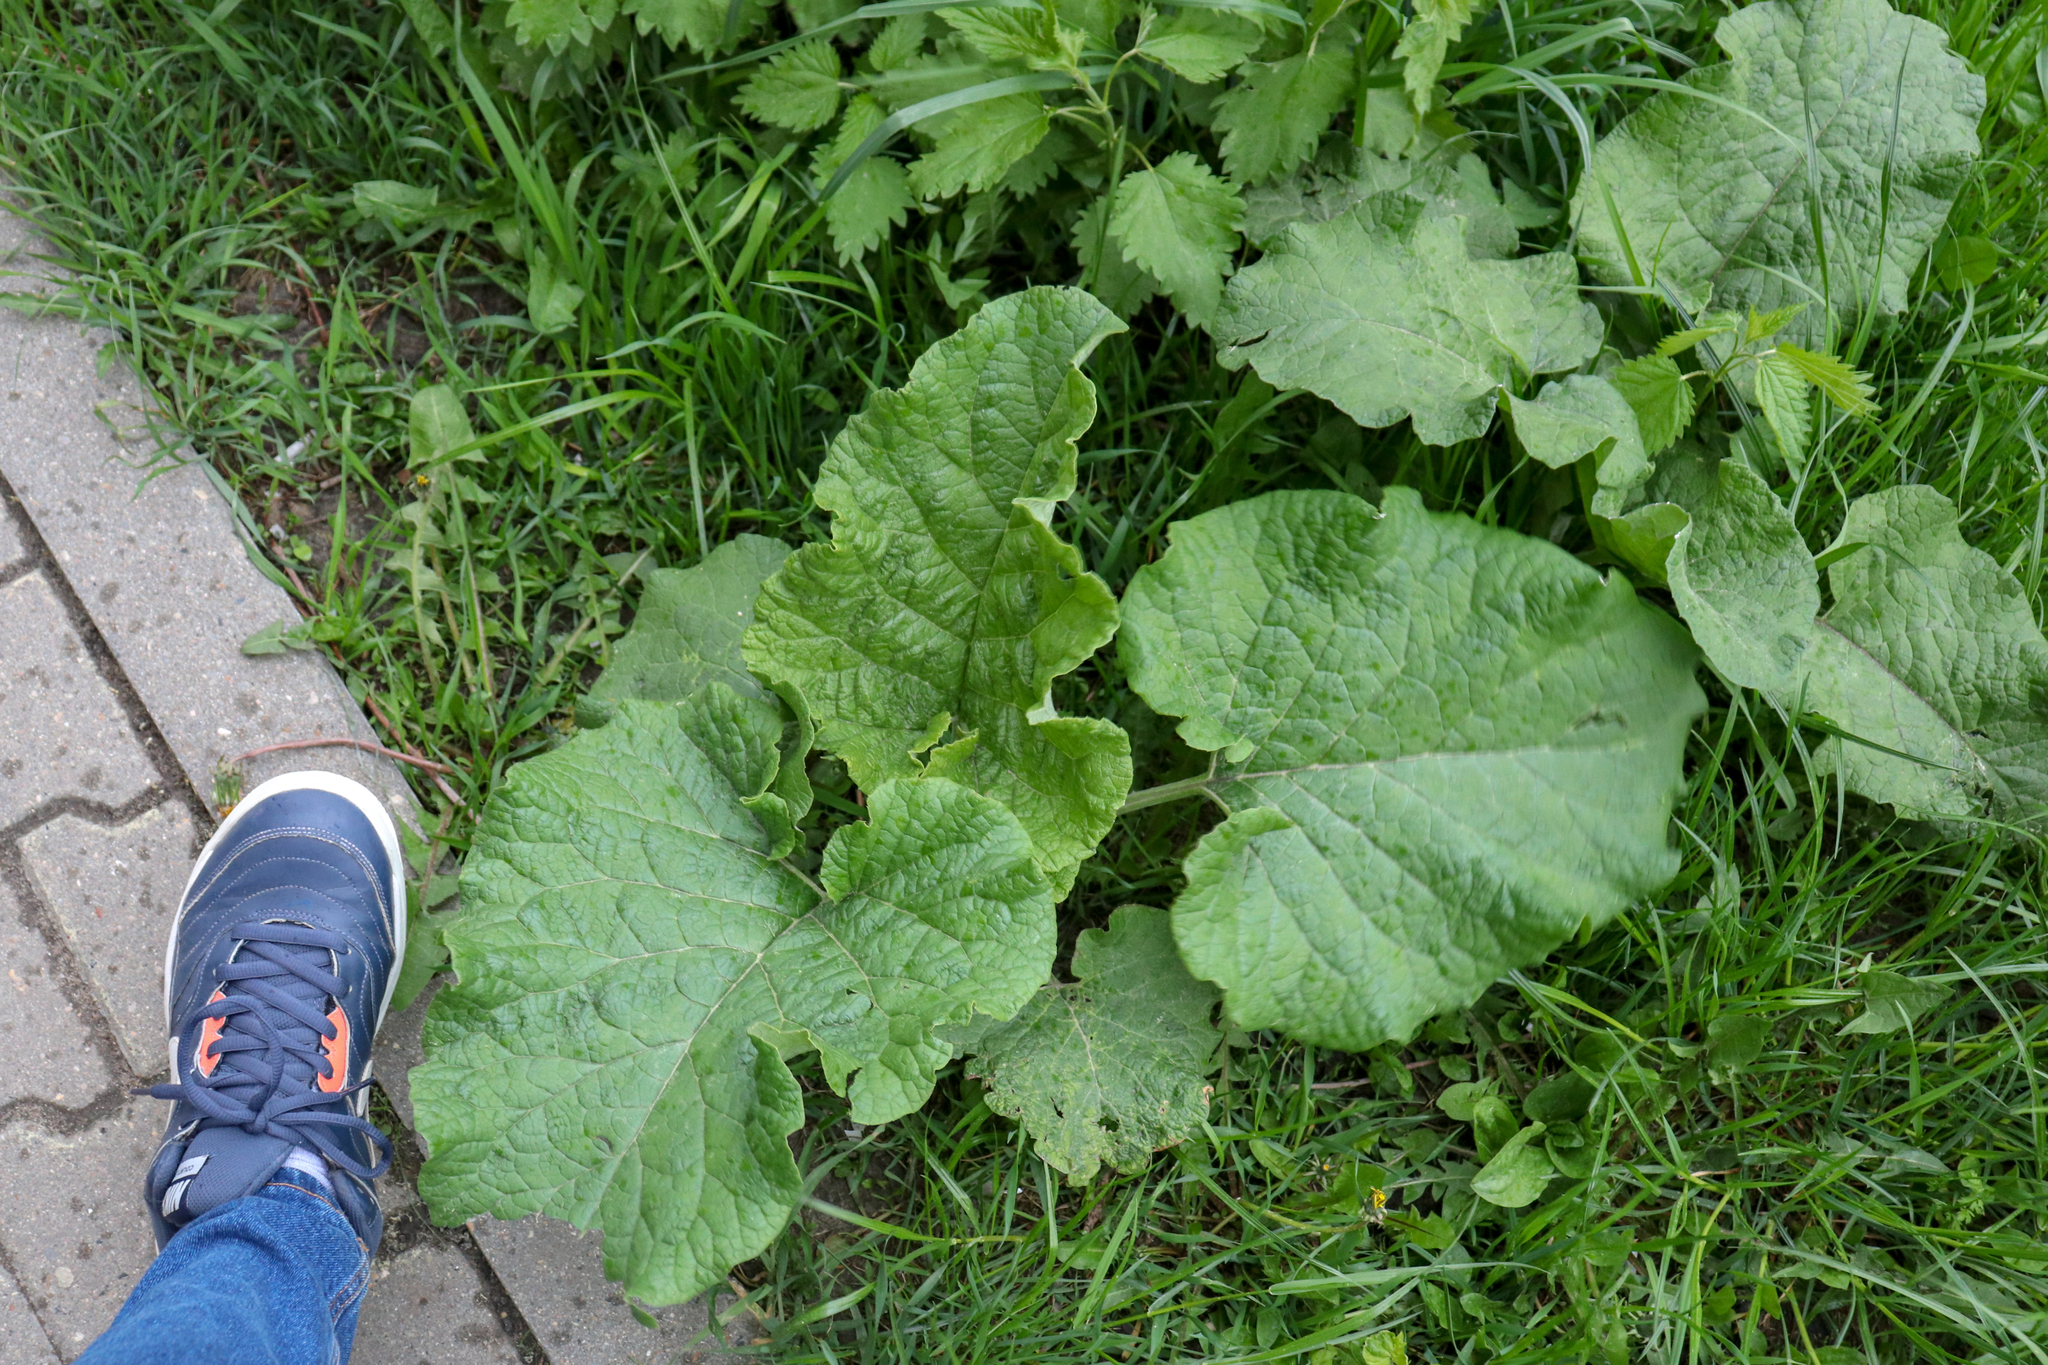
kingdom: Plantae
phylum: Tracheophyta
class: Magnoliopsida
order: Asterales
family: Asteraceae
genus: Arctium
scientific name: Arctium
